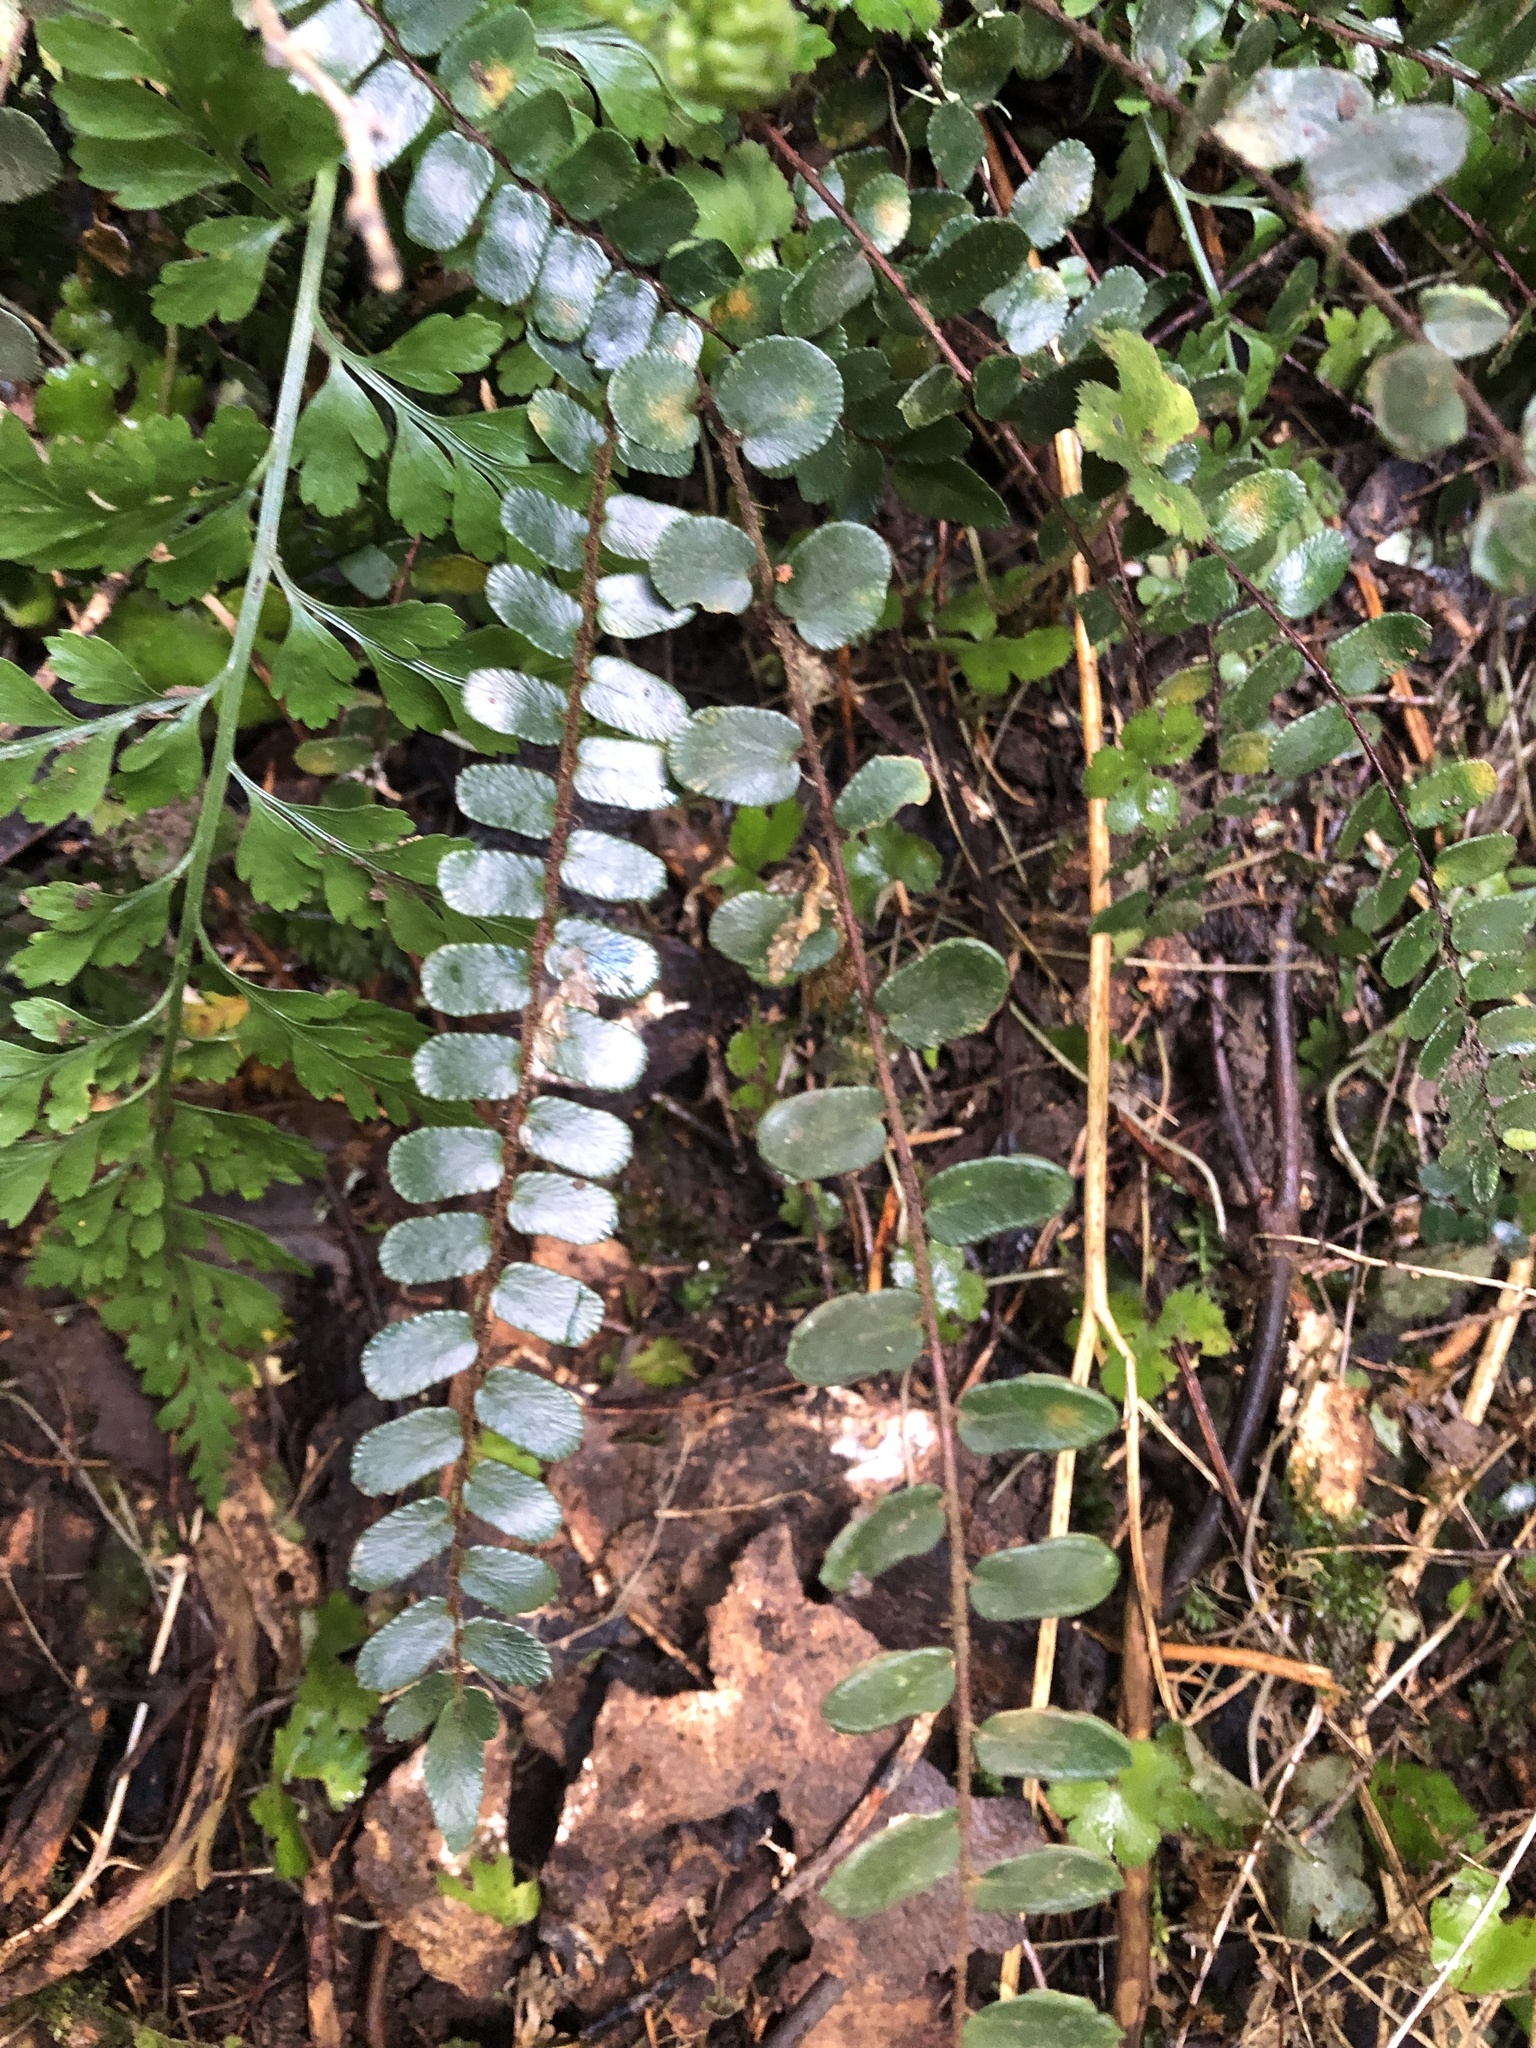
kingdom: Plantae
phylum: Tracheophyta
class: Polypodiopsida
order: Polypodiales
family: Pteridaceae
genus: Pellaea
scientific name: Pellaea rotundifolia
